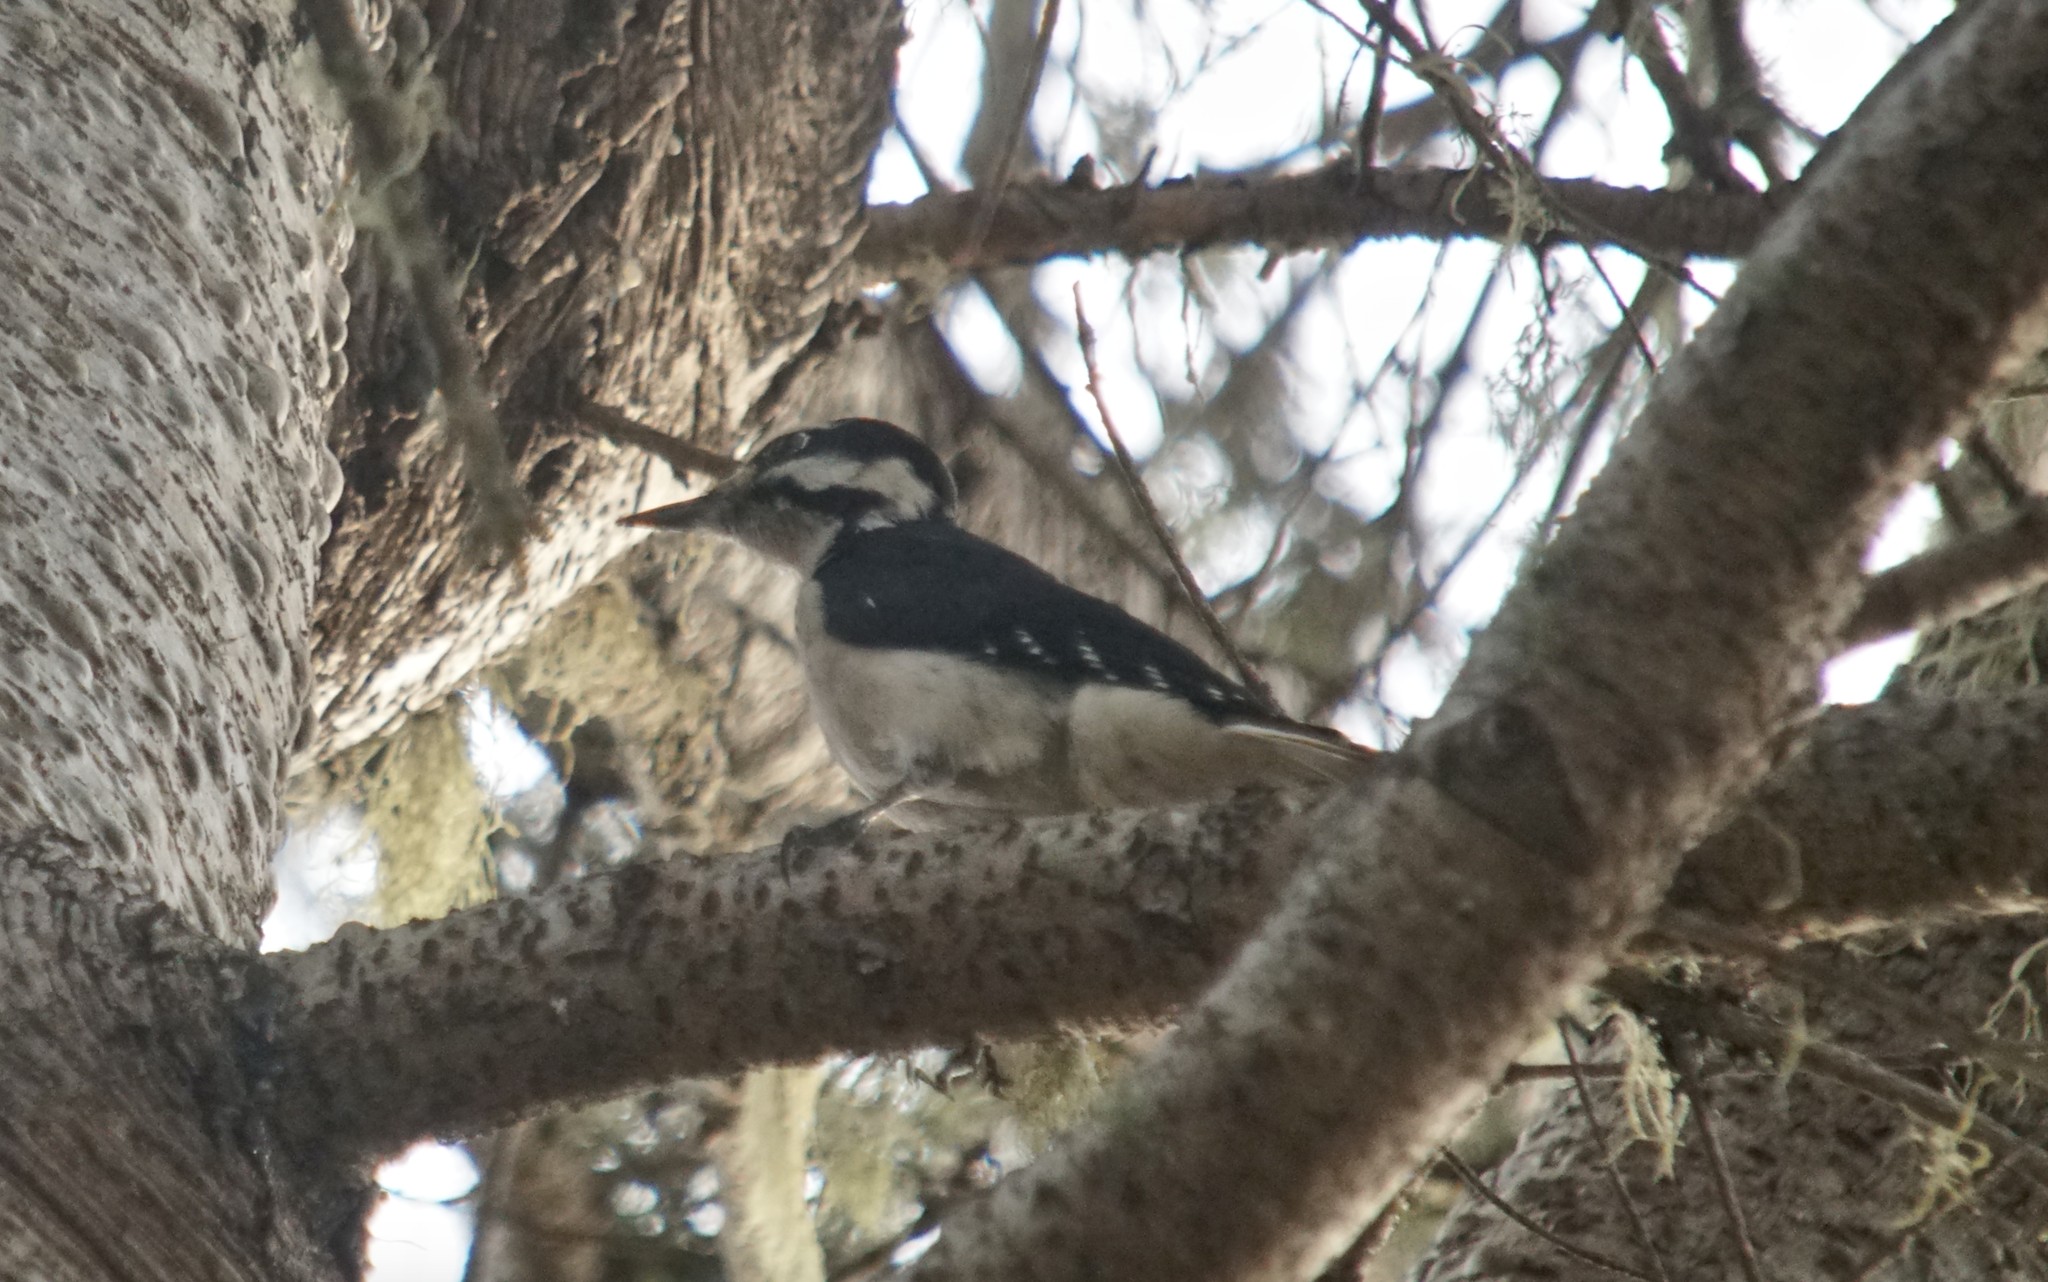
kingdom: Animalia
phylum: Chordata
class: Aves
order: Piciformes
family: Picidae
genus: Leuconotopicus
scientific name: Leuconotopicus villosus
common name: Hairy woodpecker
